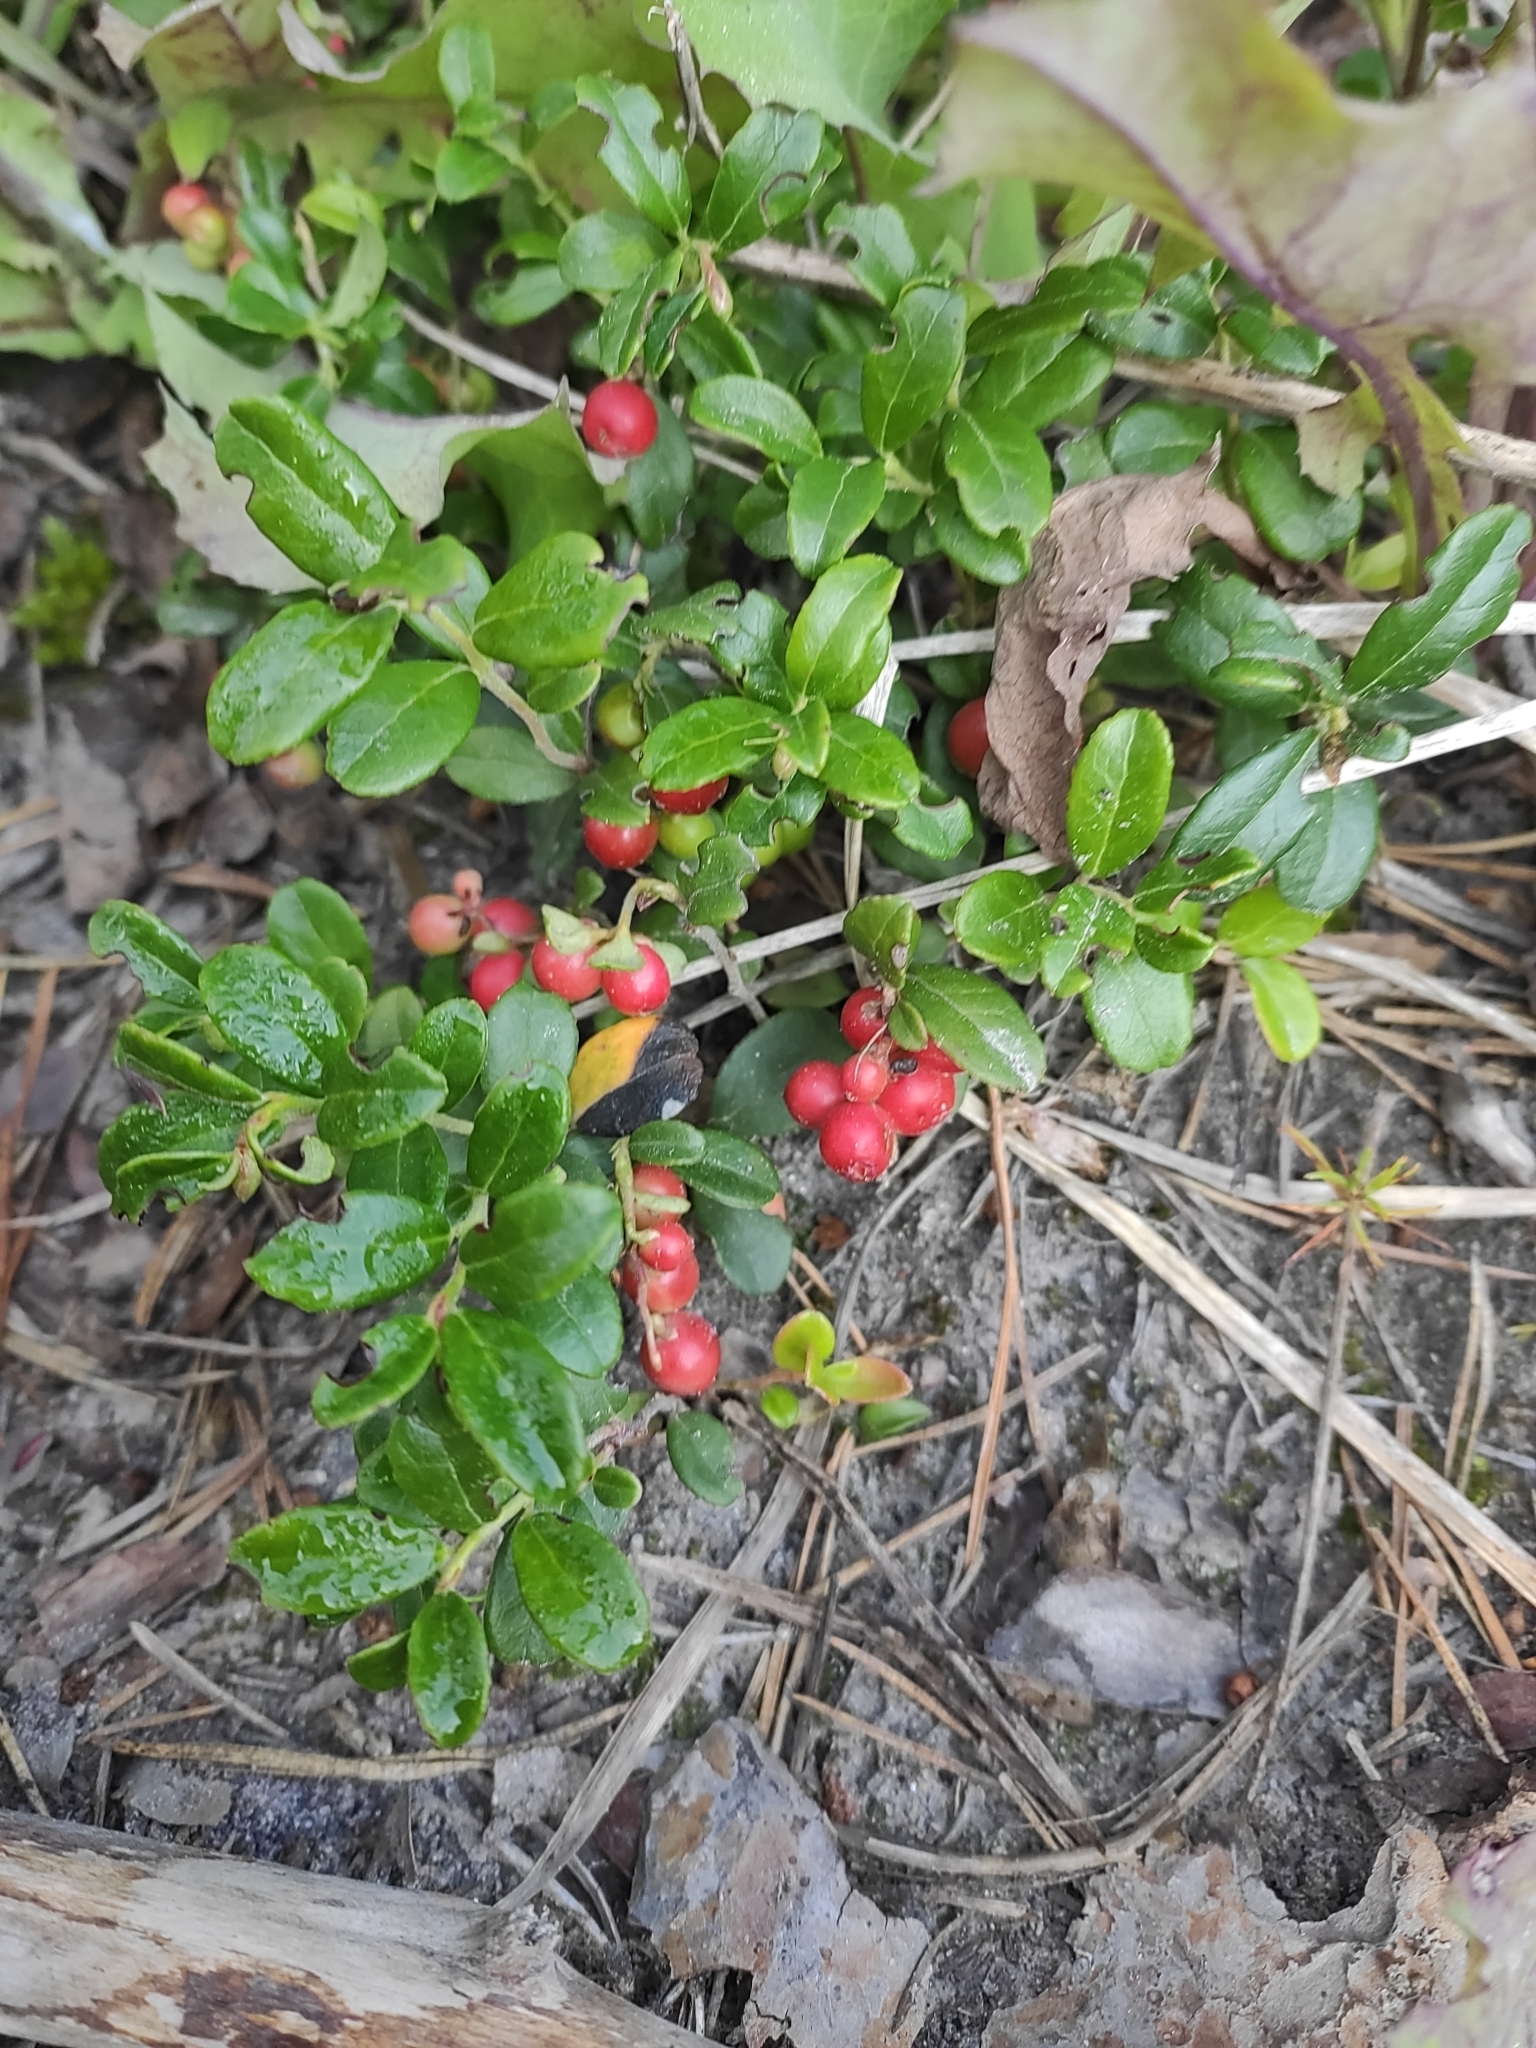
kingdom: Plantae
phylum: Tracheophyta
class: Magnoliopsida
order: Ericales
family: Ericaceae
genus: Vaccinium
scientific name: Vaccinium vitis-idaea
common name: Cowberry
